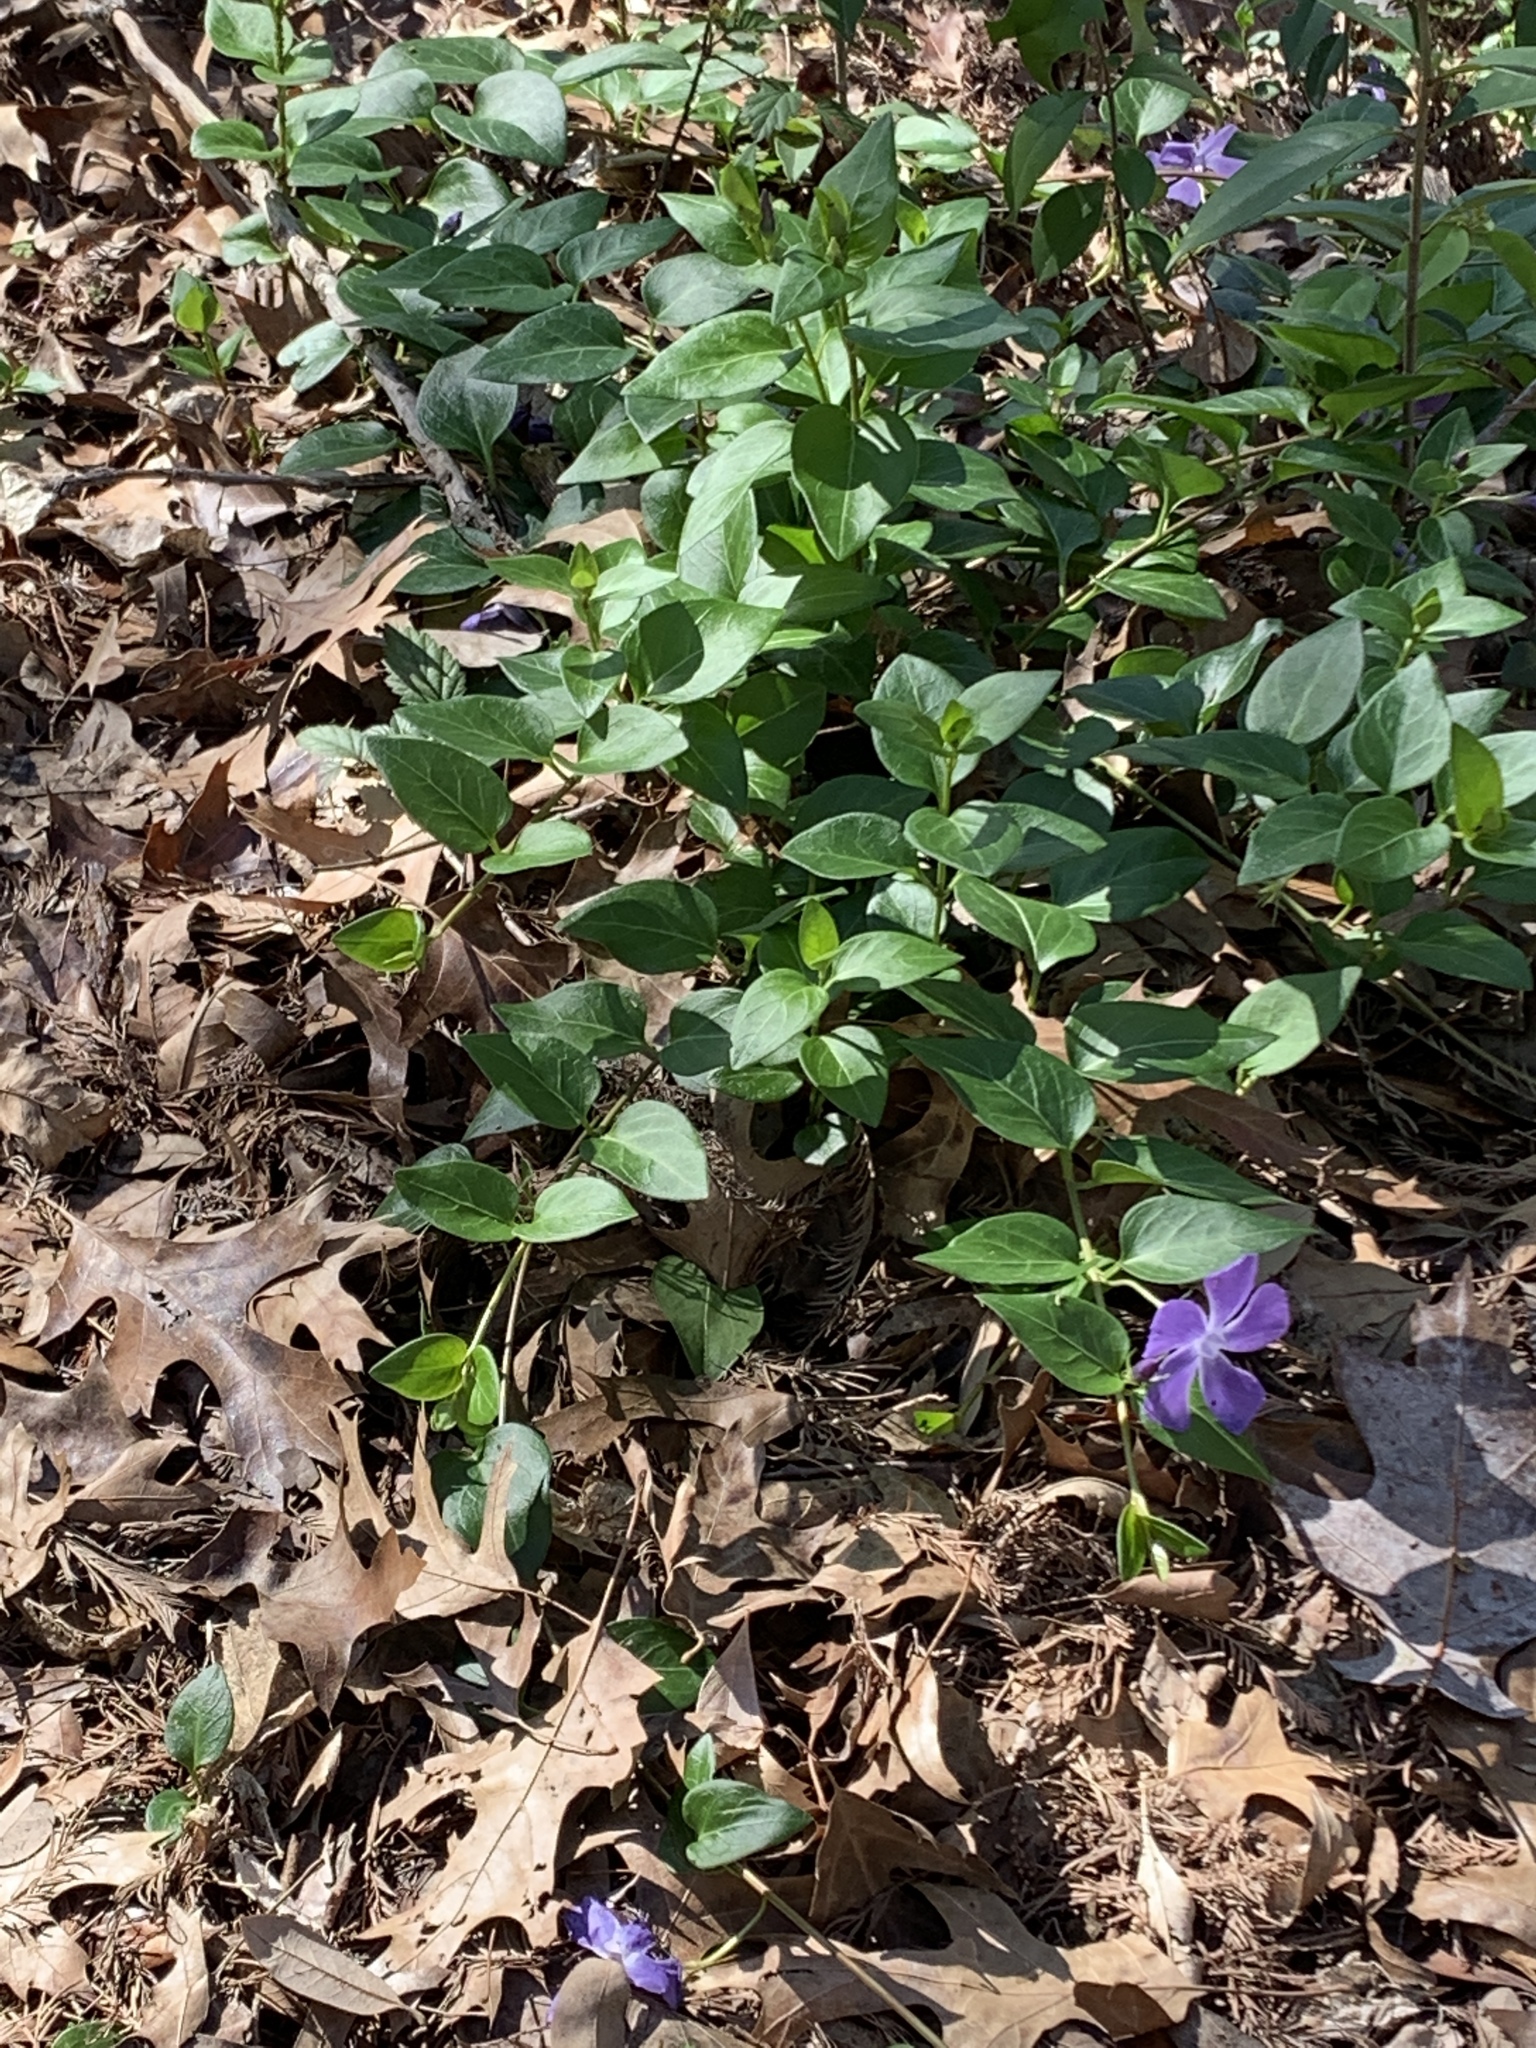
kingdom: Plantae
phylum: Tracheophyta
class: Magnoliopsida
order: Gentianales
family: Apocynaceae
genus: Vinca
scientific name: Vinca major
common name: Greater periwinkle
